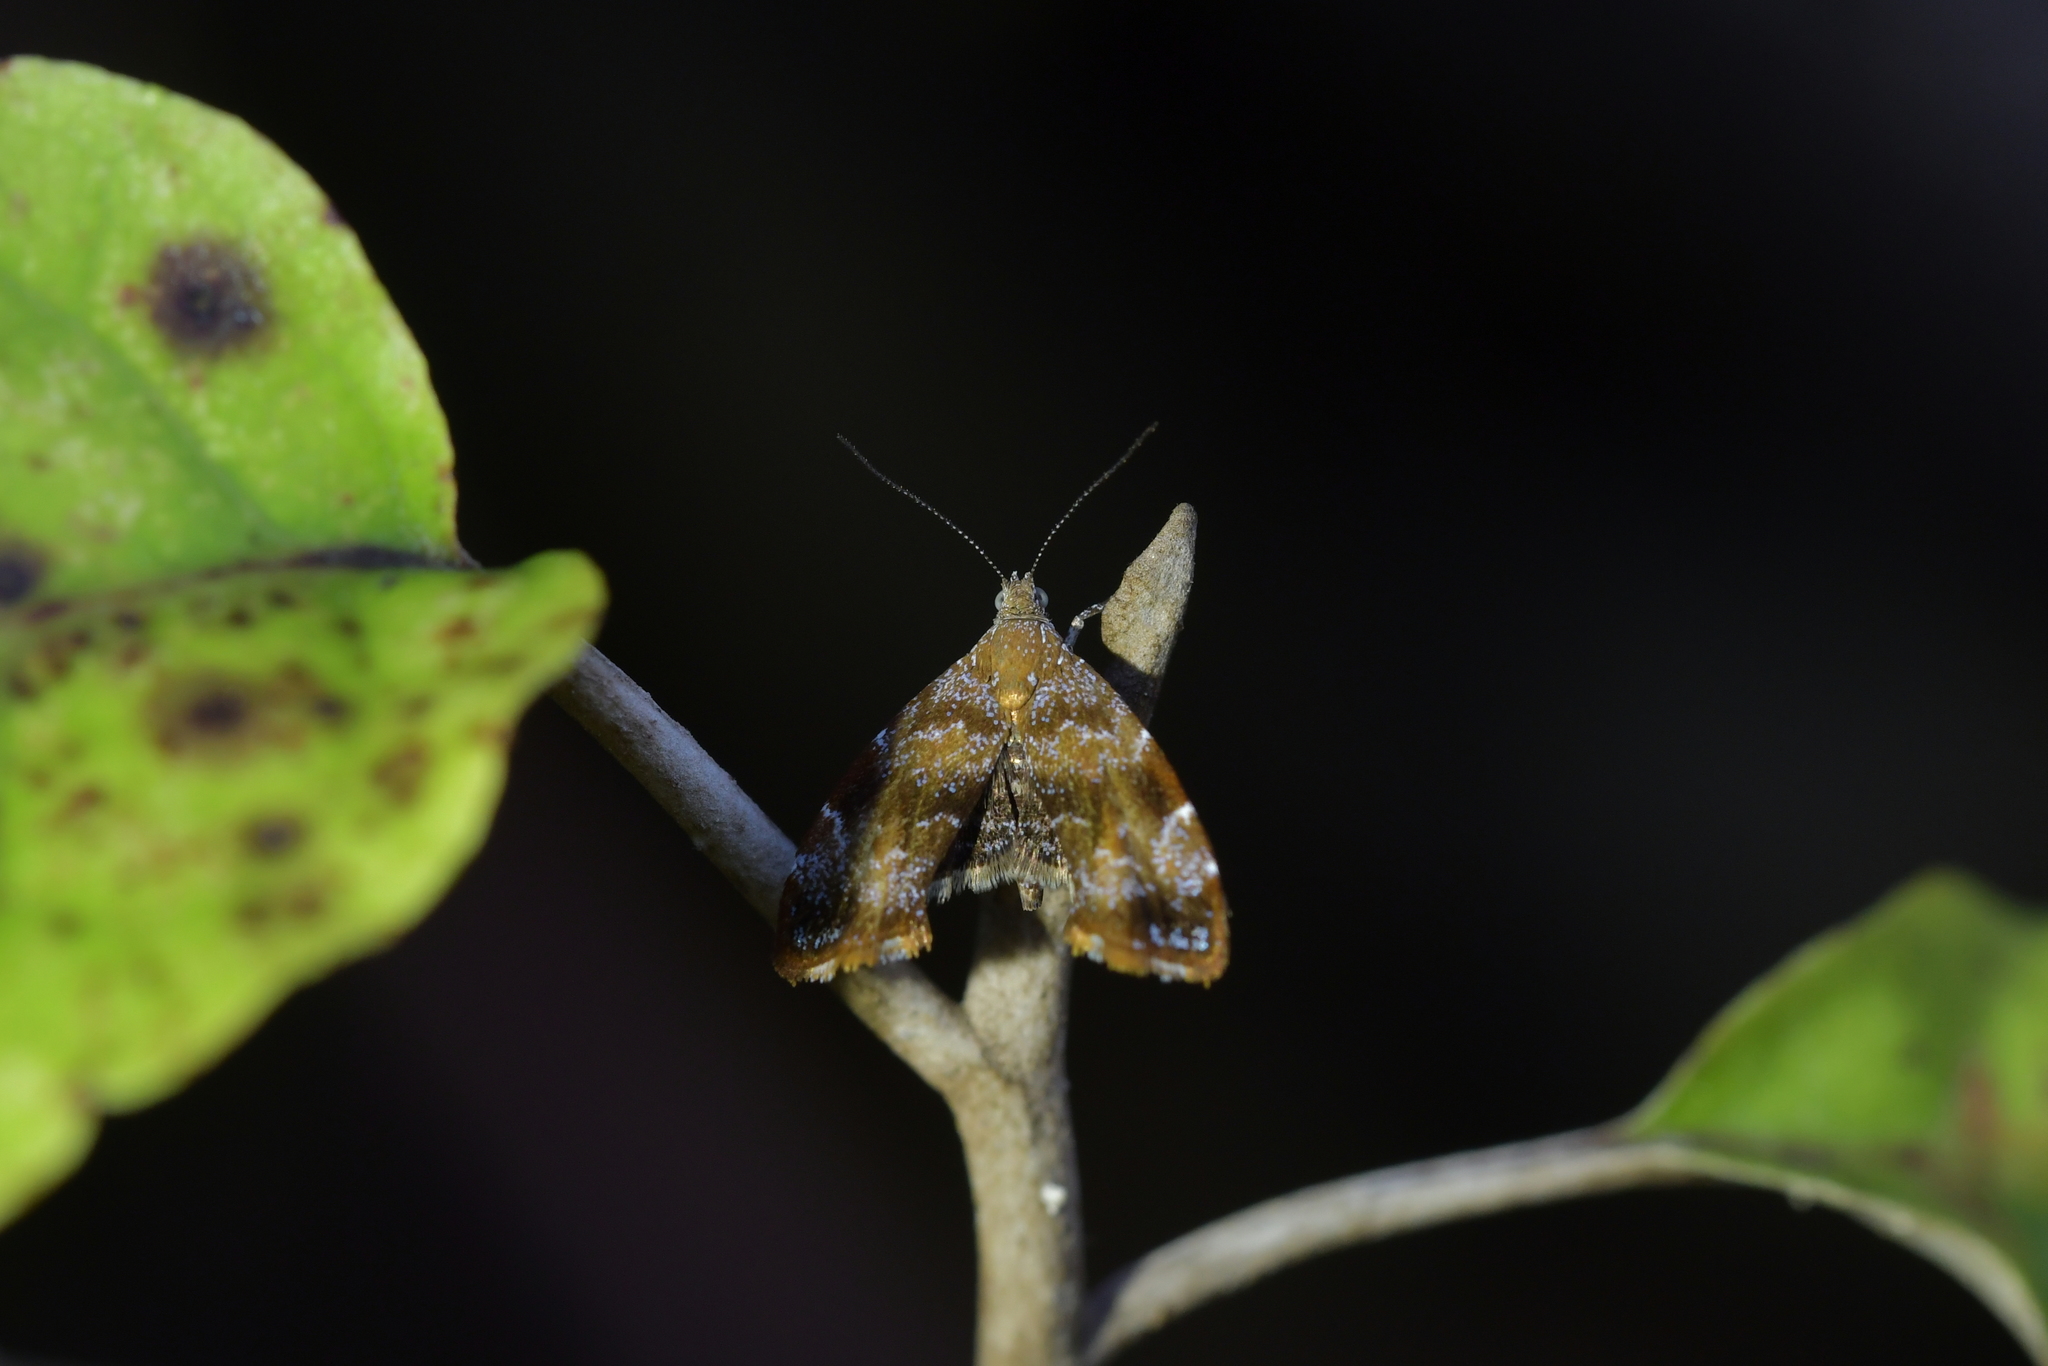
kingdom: Animalia
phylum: Arthropoda
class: Insecta
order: Lepidoptera
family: Choreutidae
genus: Asterivora
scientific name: Asterivora colpota
